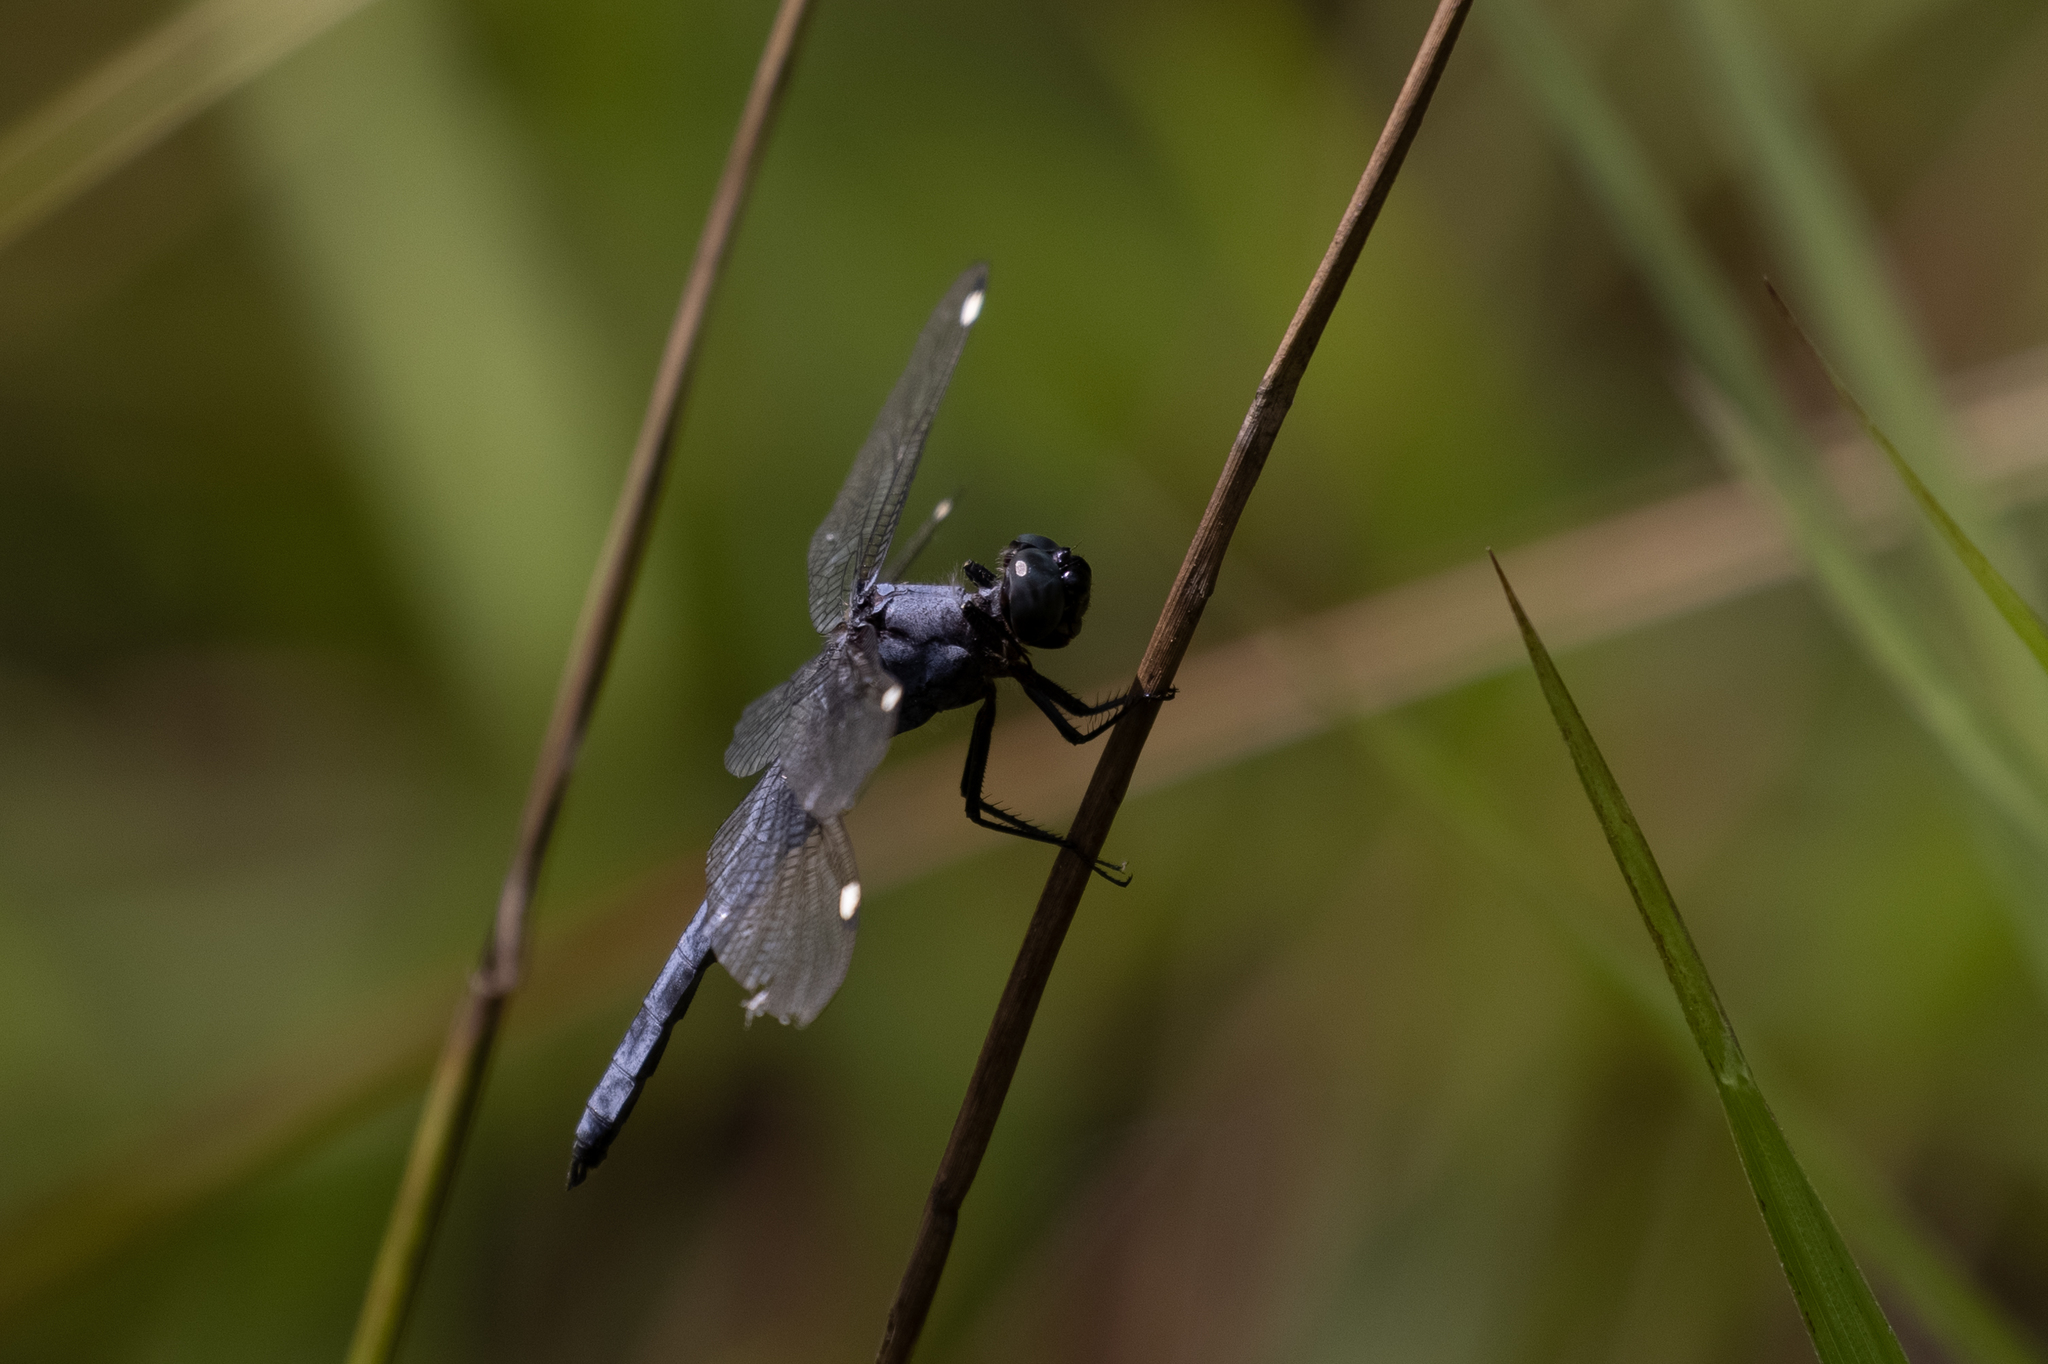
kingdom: Animalia
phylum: Arthropoda
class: Insecta
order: Odonata
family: Libellulidae
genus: Libellula
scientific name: Libellula cyanea
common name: Spangled skimmer
